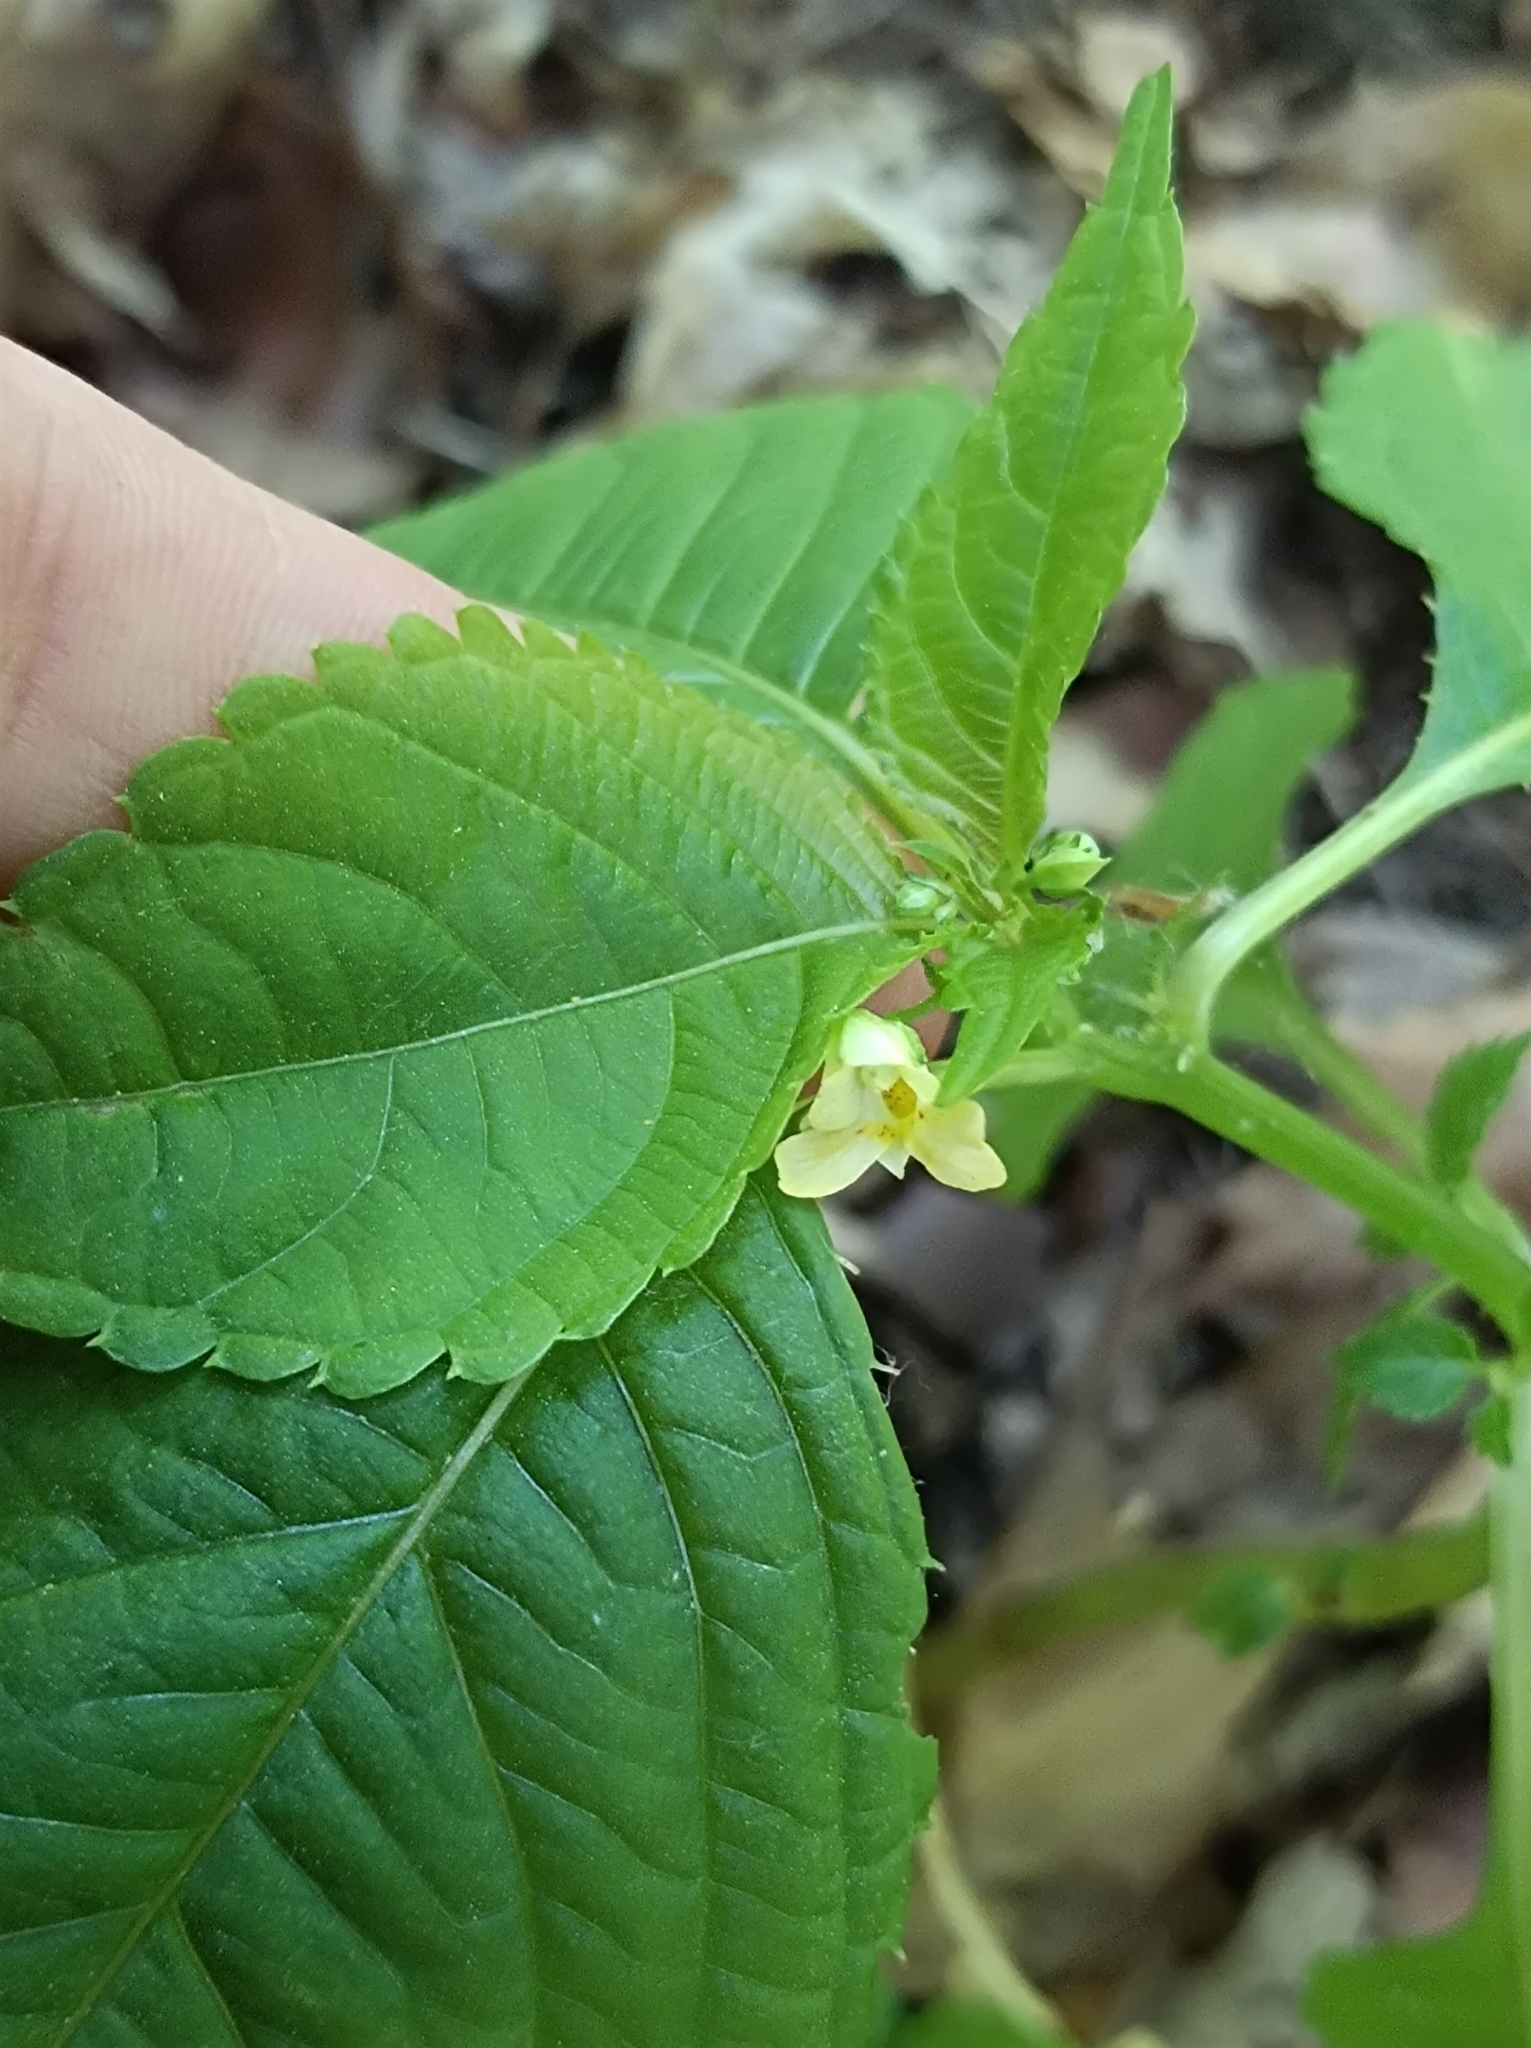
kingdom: Plantae
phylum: Tracheophyta
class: Magnoliopsida
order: Ericales
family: Balsaminaceae
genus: Impatiens
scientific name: Impatiens parviflora
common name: Small balsam
